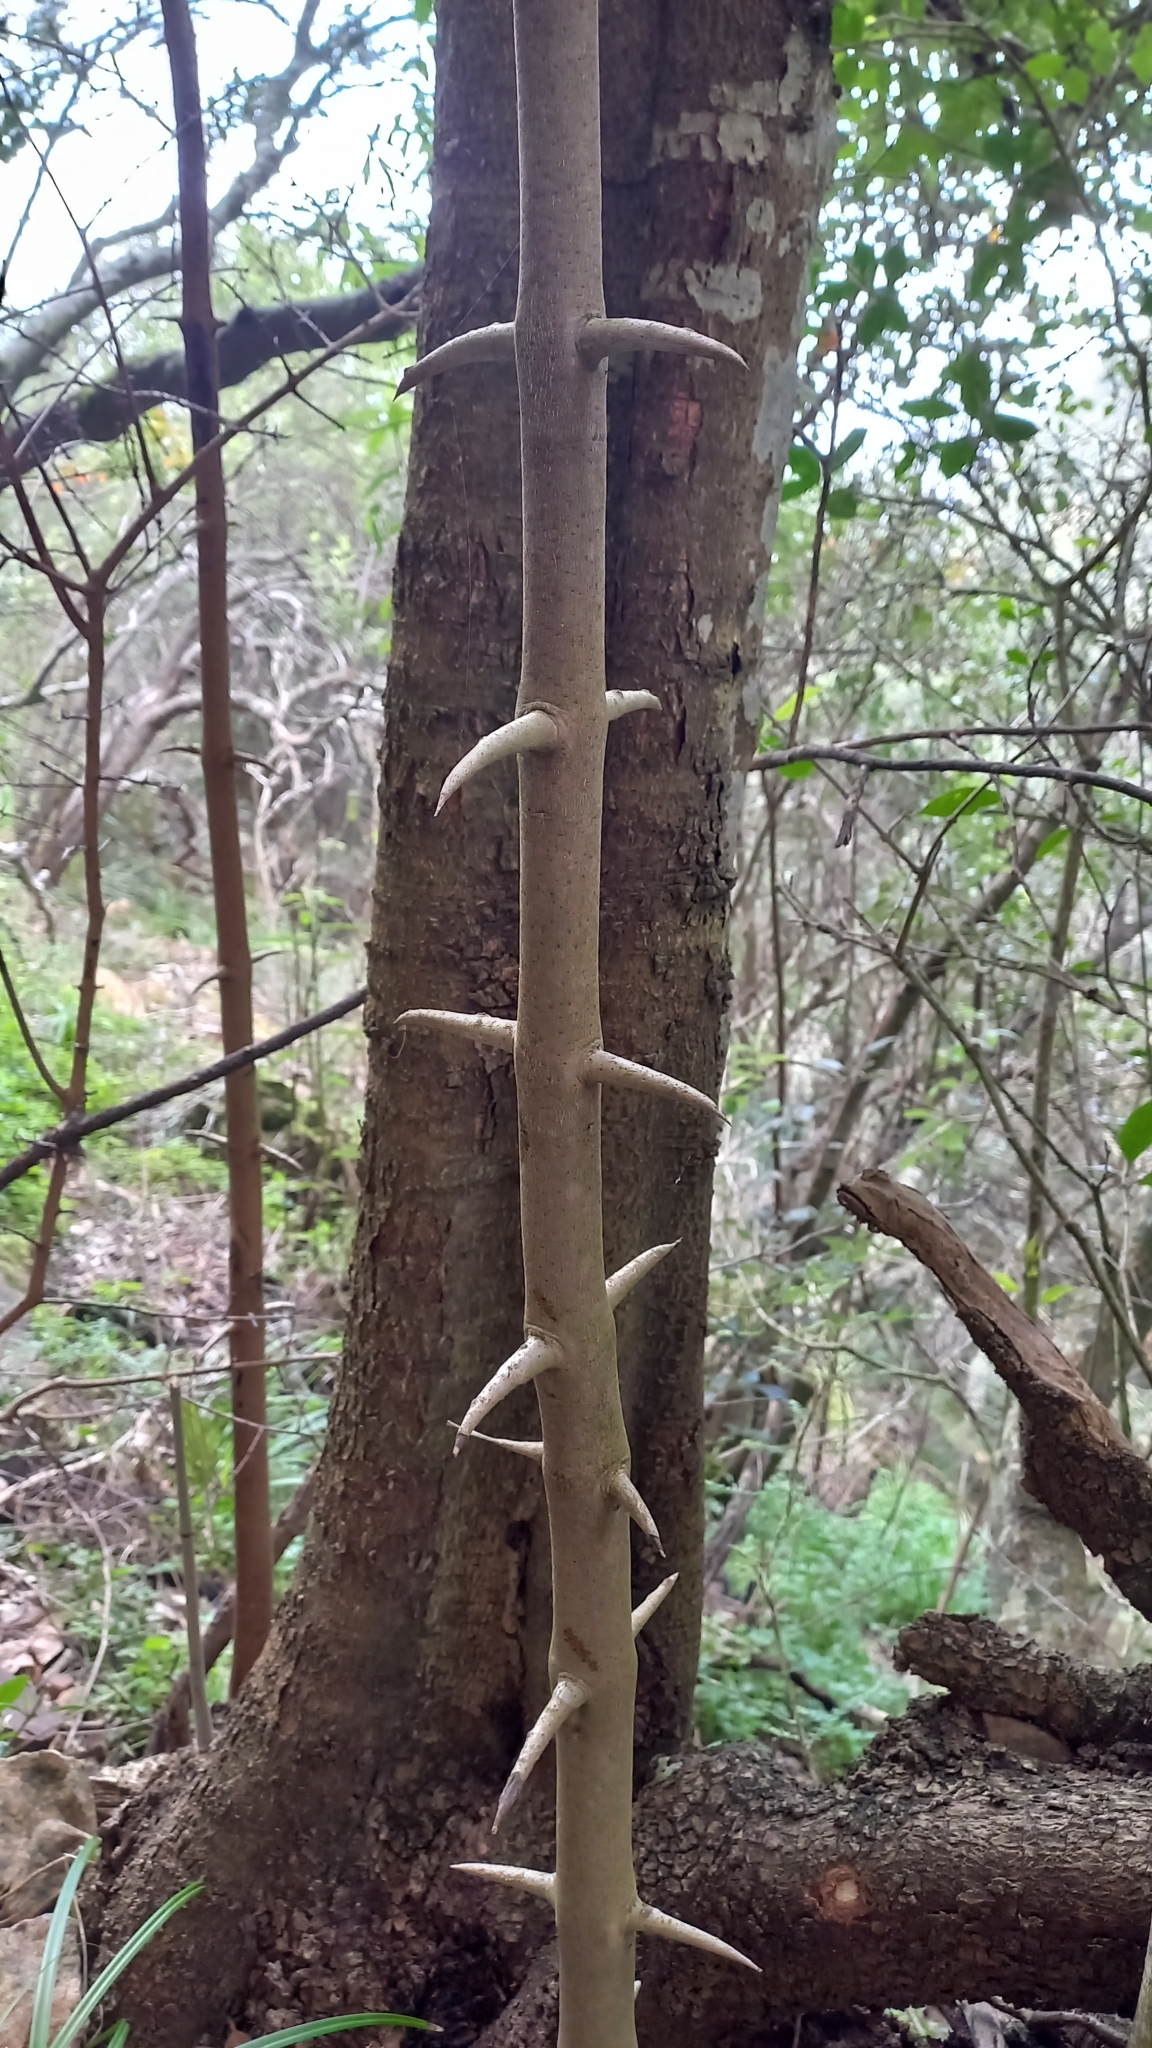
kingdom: Plantae
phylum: Tracheophyta
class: Magnoliopsida
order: Gentianales
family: Rubiaceae
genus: Canthium
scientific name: Canthium inerme
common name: Unarmed turkey-berry
